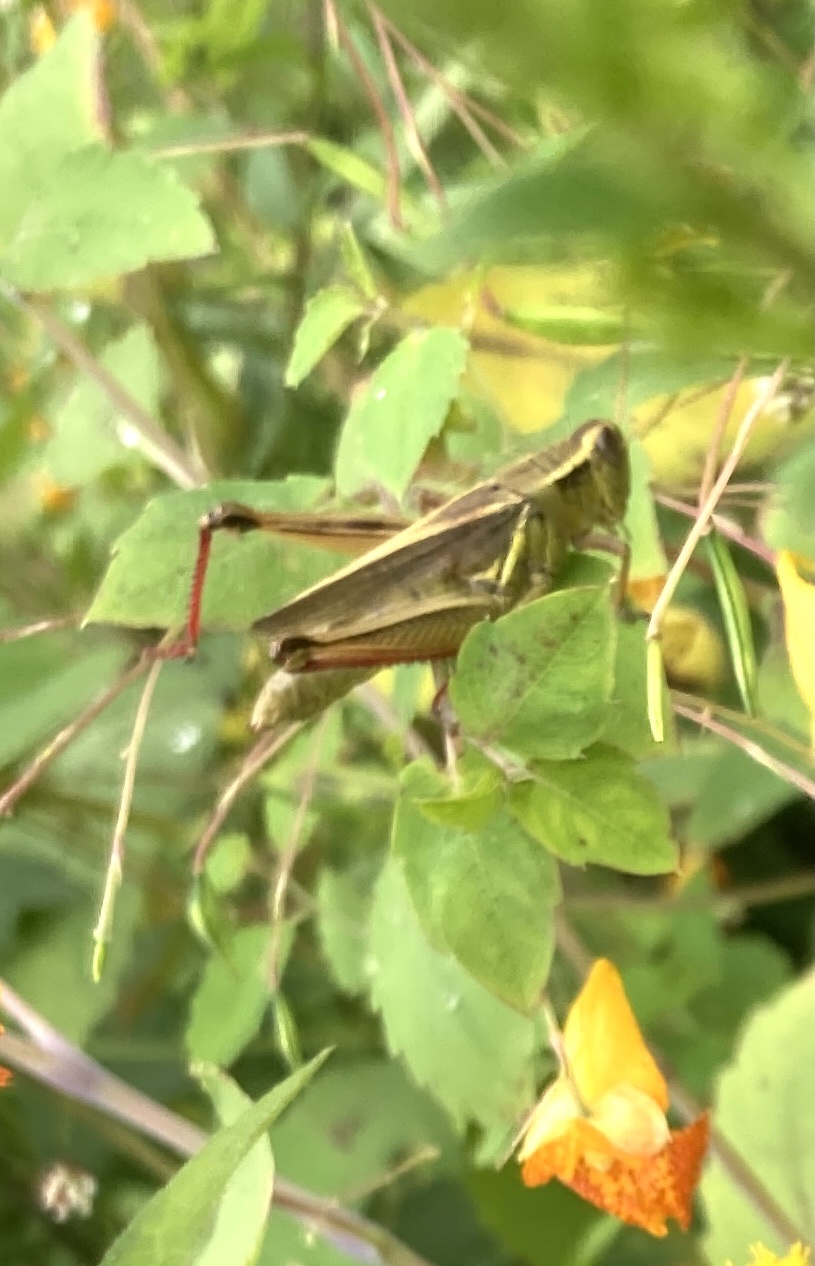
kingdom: Animalia
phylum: Arthropoda
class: Insecta
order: Orthoptera
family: Acrididae
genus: Melanoplus
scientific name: Melanoplus bivittatus
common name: Two-striped grasshopper
